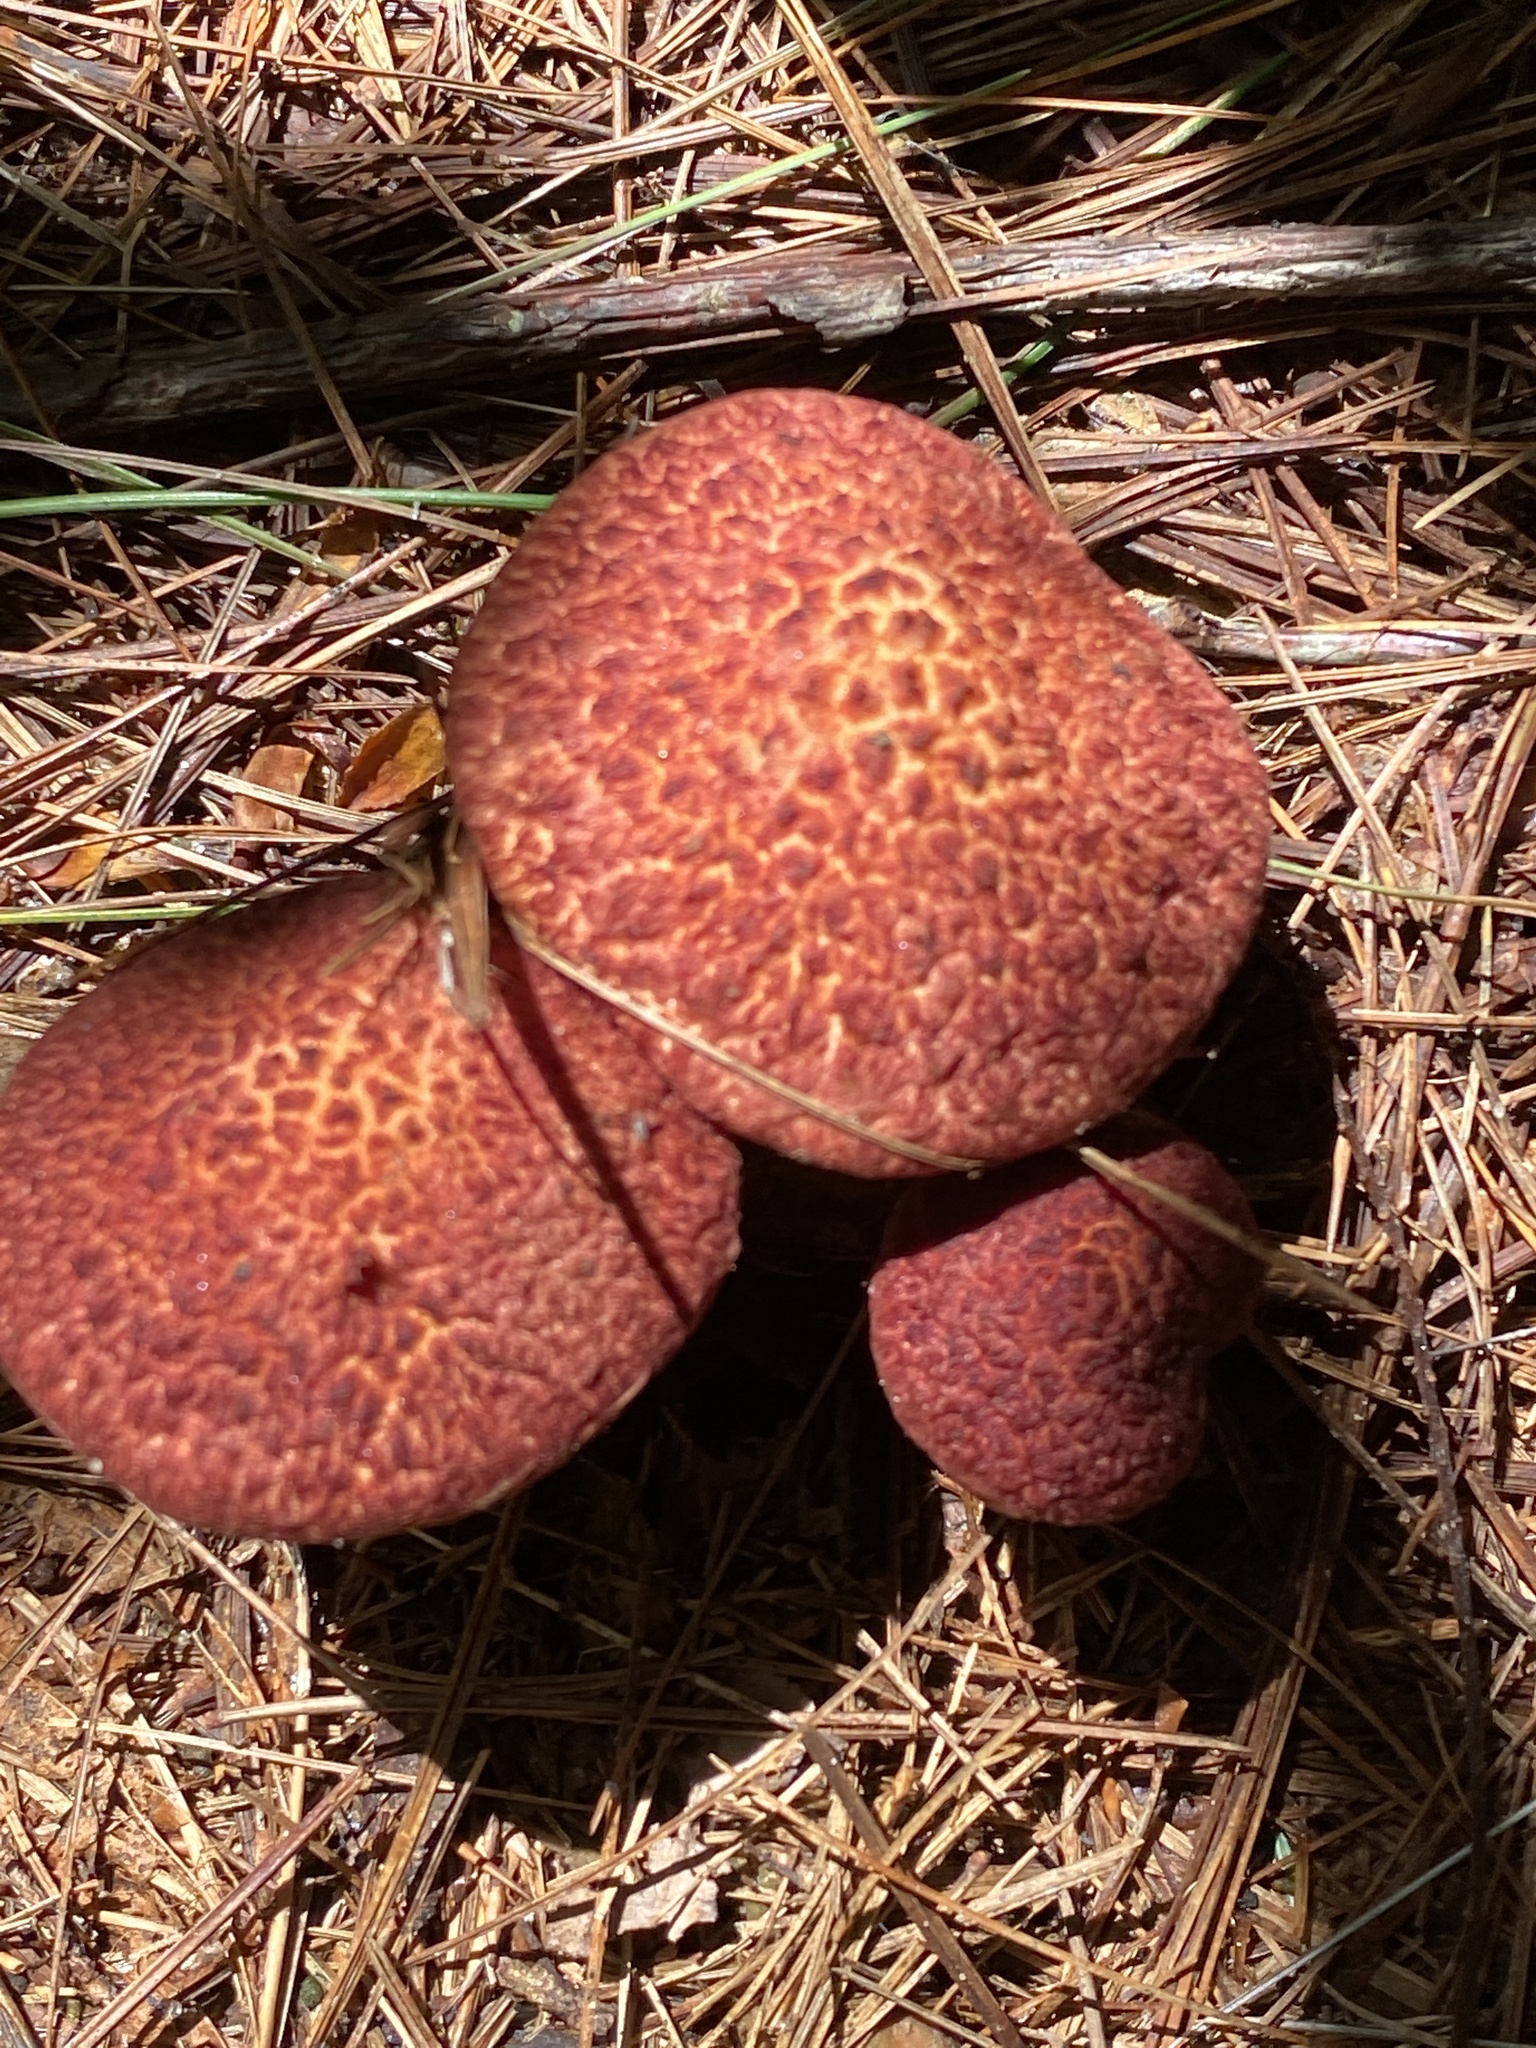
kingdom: Fungi
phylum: Basidiomycota
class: Agaricomycetes
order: Boletales
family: Suillaceae
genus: Suillus
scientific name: Suillus spraguei
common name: Painted suillus
